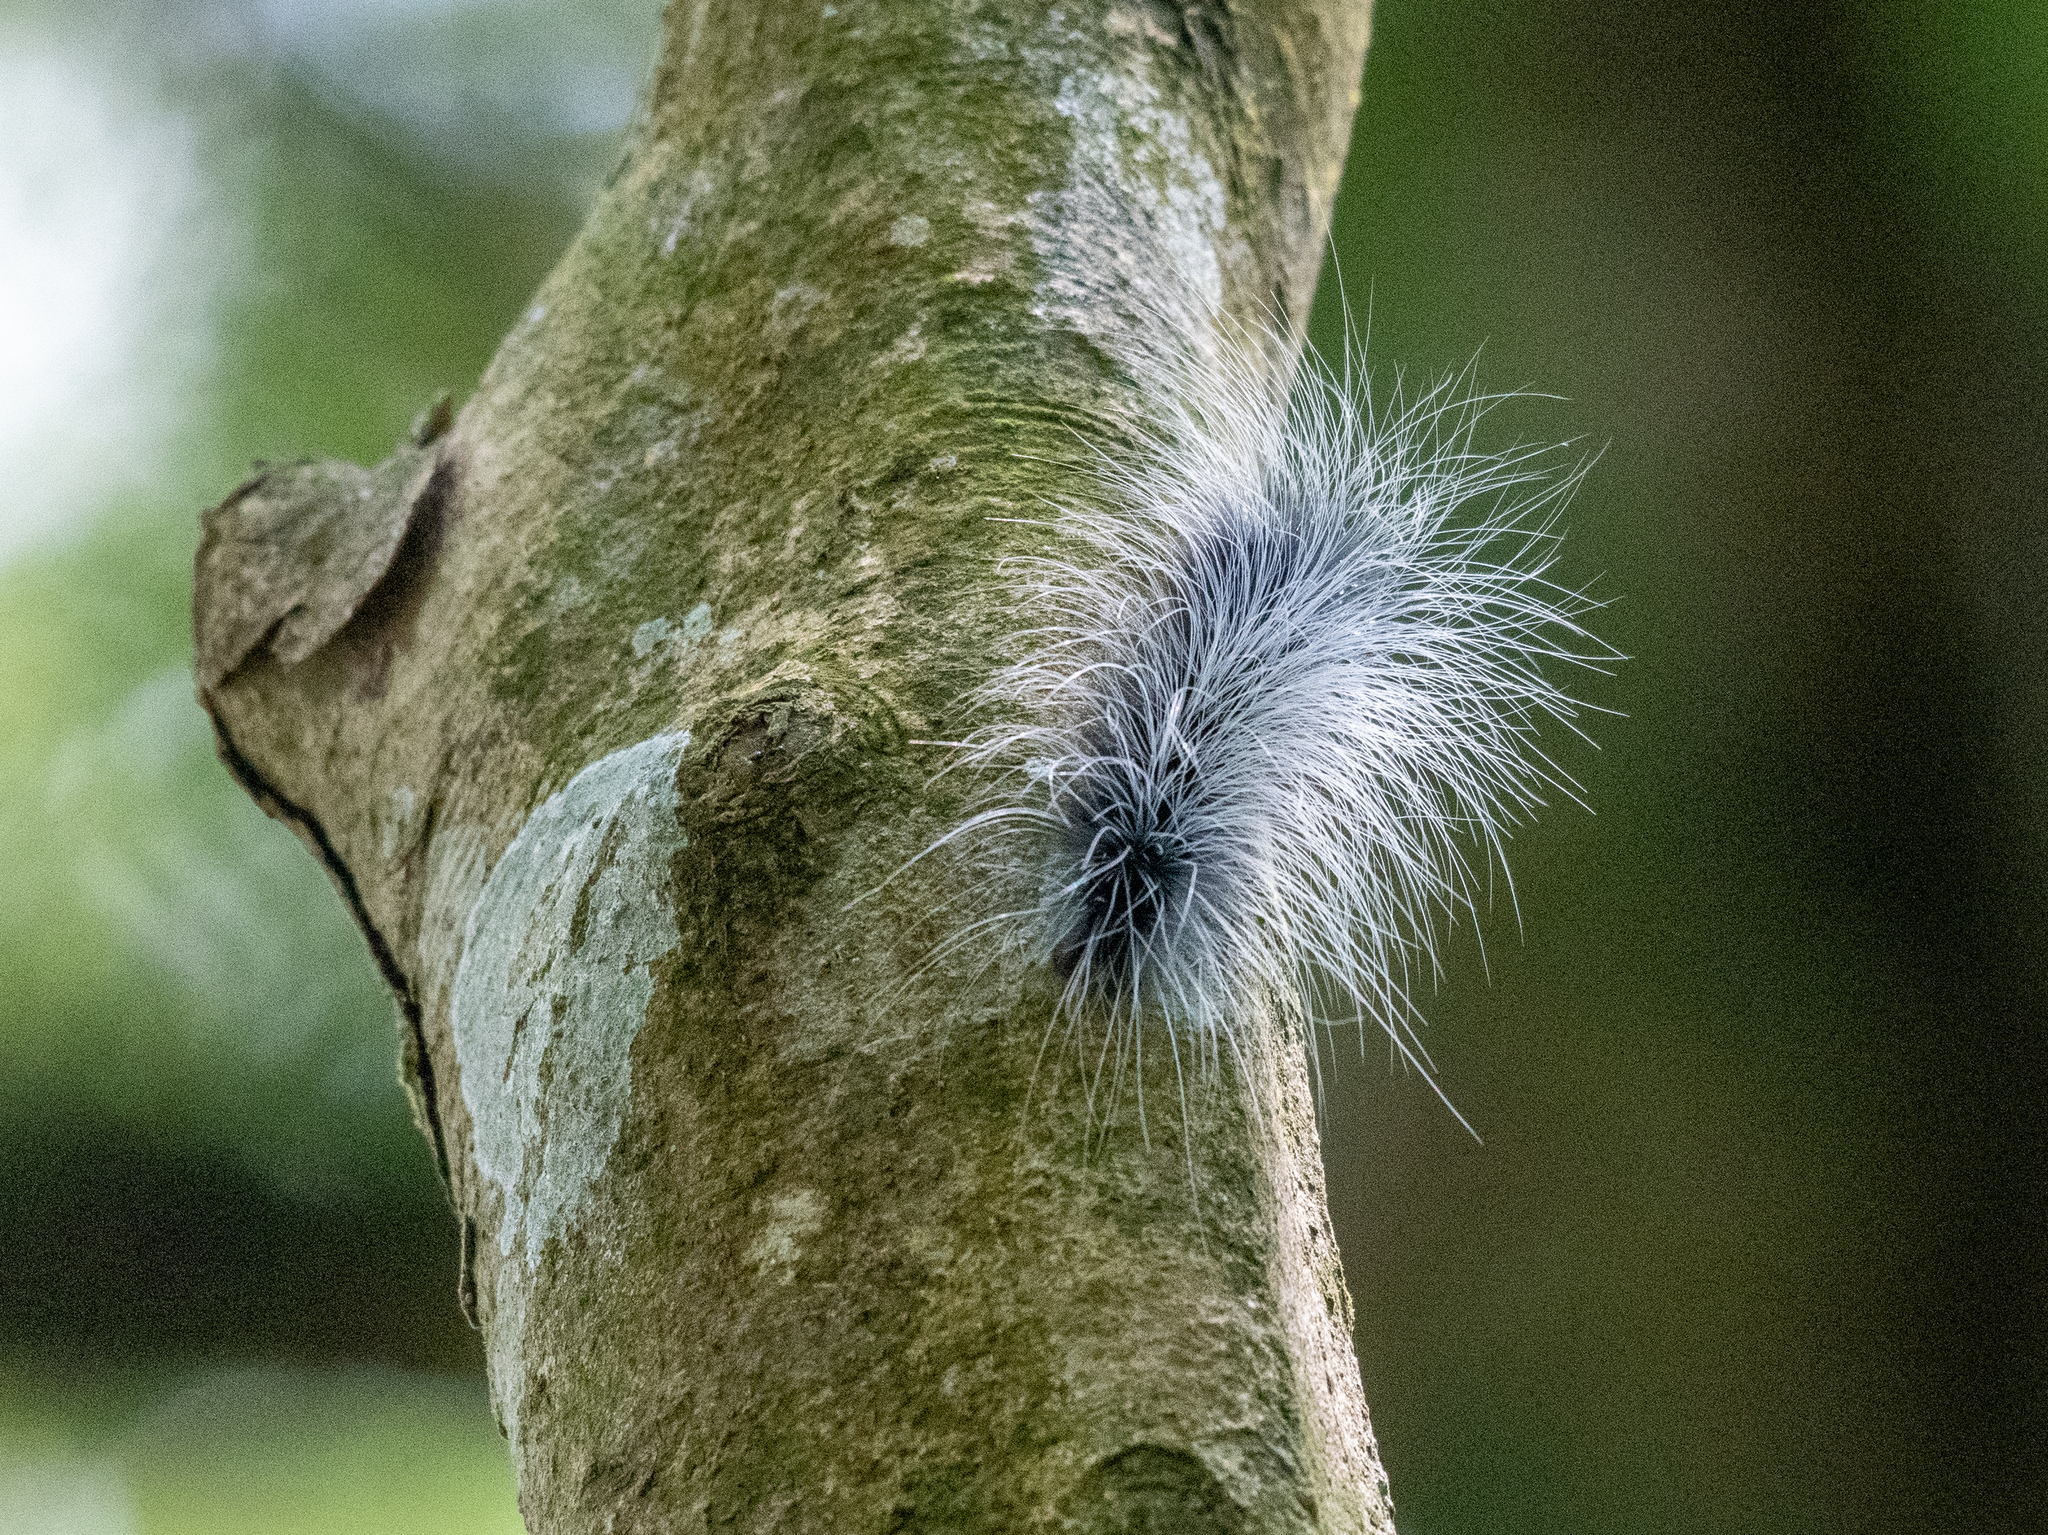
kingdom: Animalia
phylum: Arthropoda
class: Insecta
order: Lepidoptera
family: Erebidae
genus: Macrobrochis
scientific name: Macrobrochis gigas
